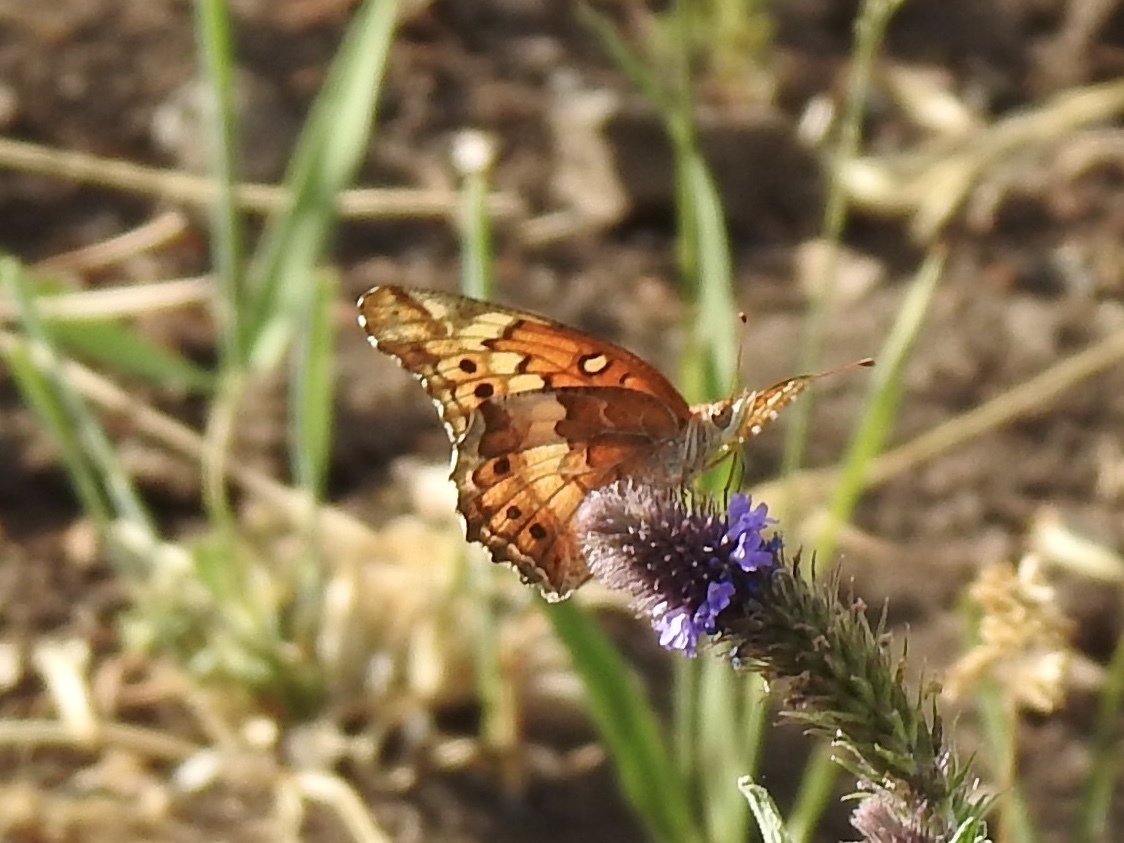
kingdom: Animalia
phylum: Arthropoda
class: Insecta
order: Lepidoptera
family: Nymphalidae
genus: Euptoieta
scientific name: Euptoieta claudia
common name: Variegated fritillary
